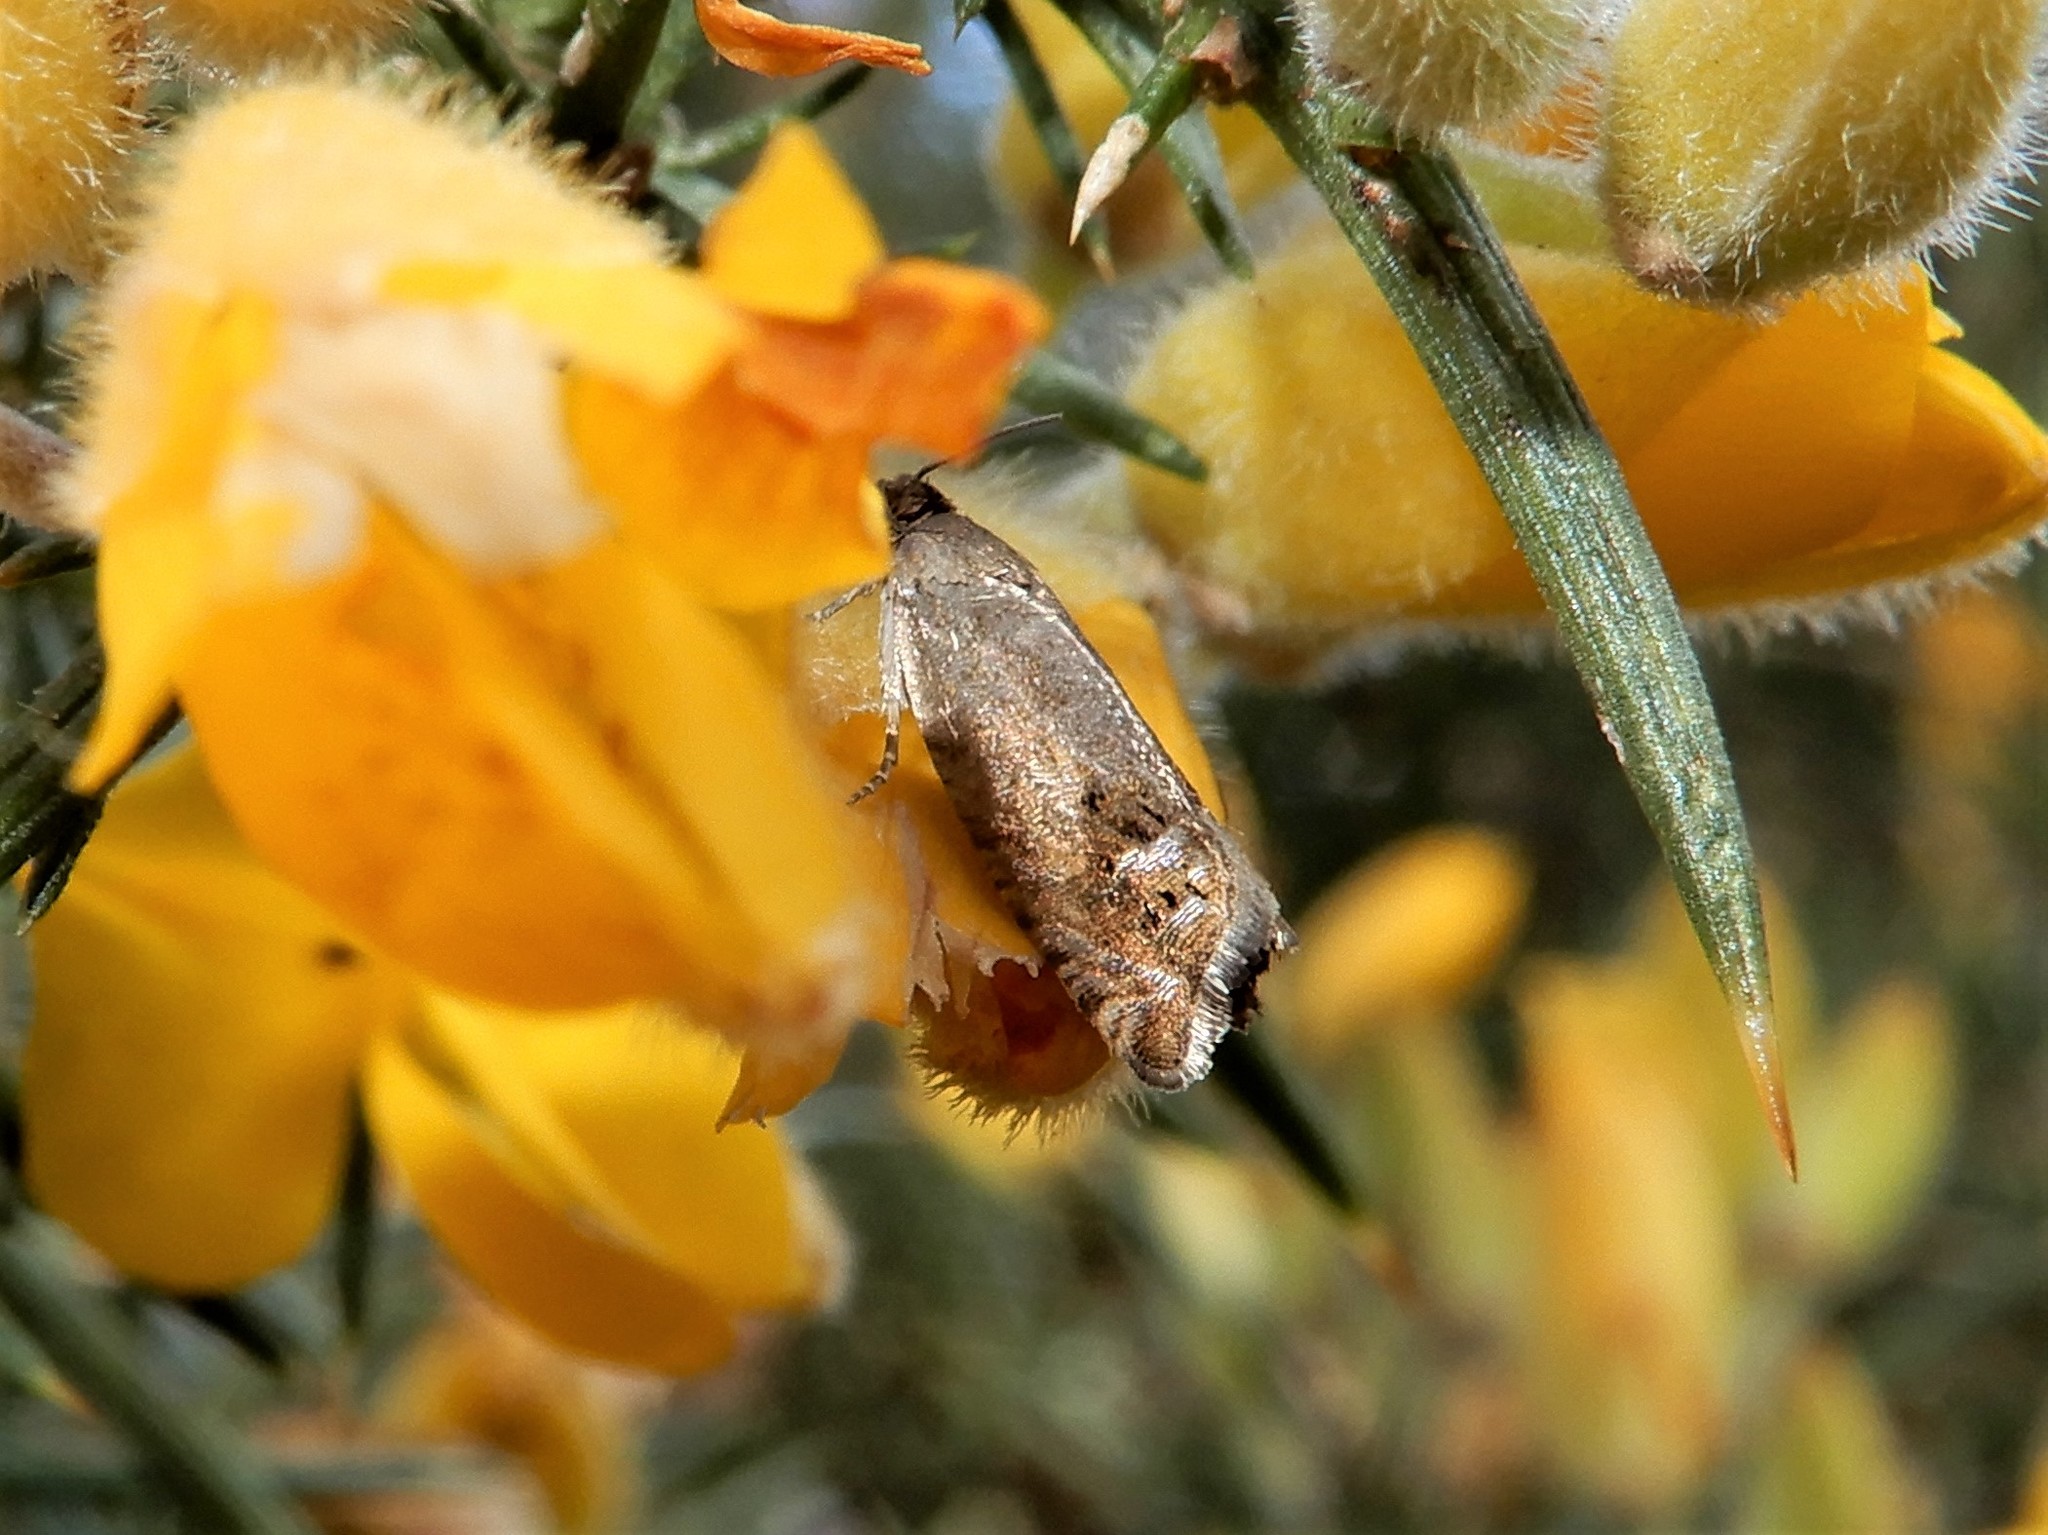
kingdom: Animalia
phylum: Arthropoda
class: Insecta
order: Lepidoptera
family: Tortricidae
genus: Cydia
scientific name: Cydia succedana
